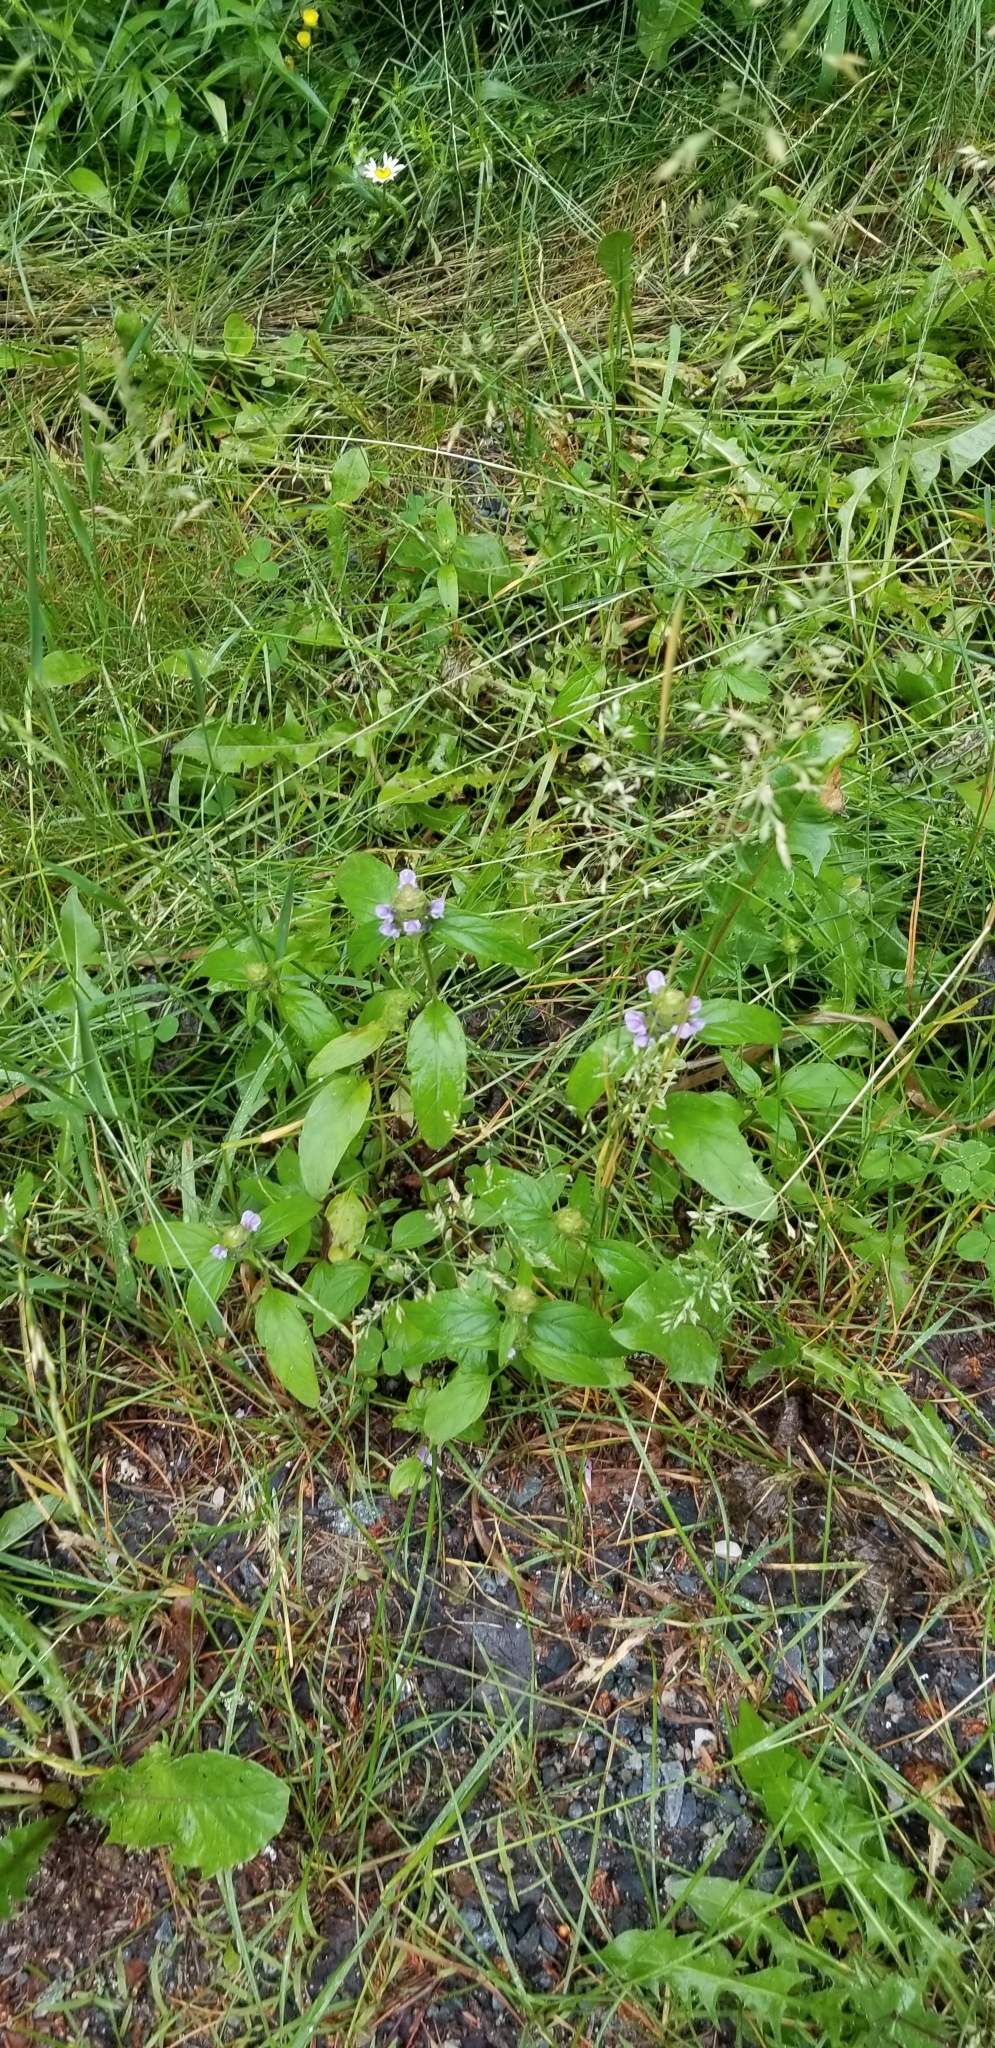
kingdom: Plantae
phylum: Tracheophyta
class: Magnoliopsida
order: Lamiales
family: Lamiaceae
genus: Prunella
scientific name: Prunella vulgaris
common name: Heal-all
